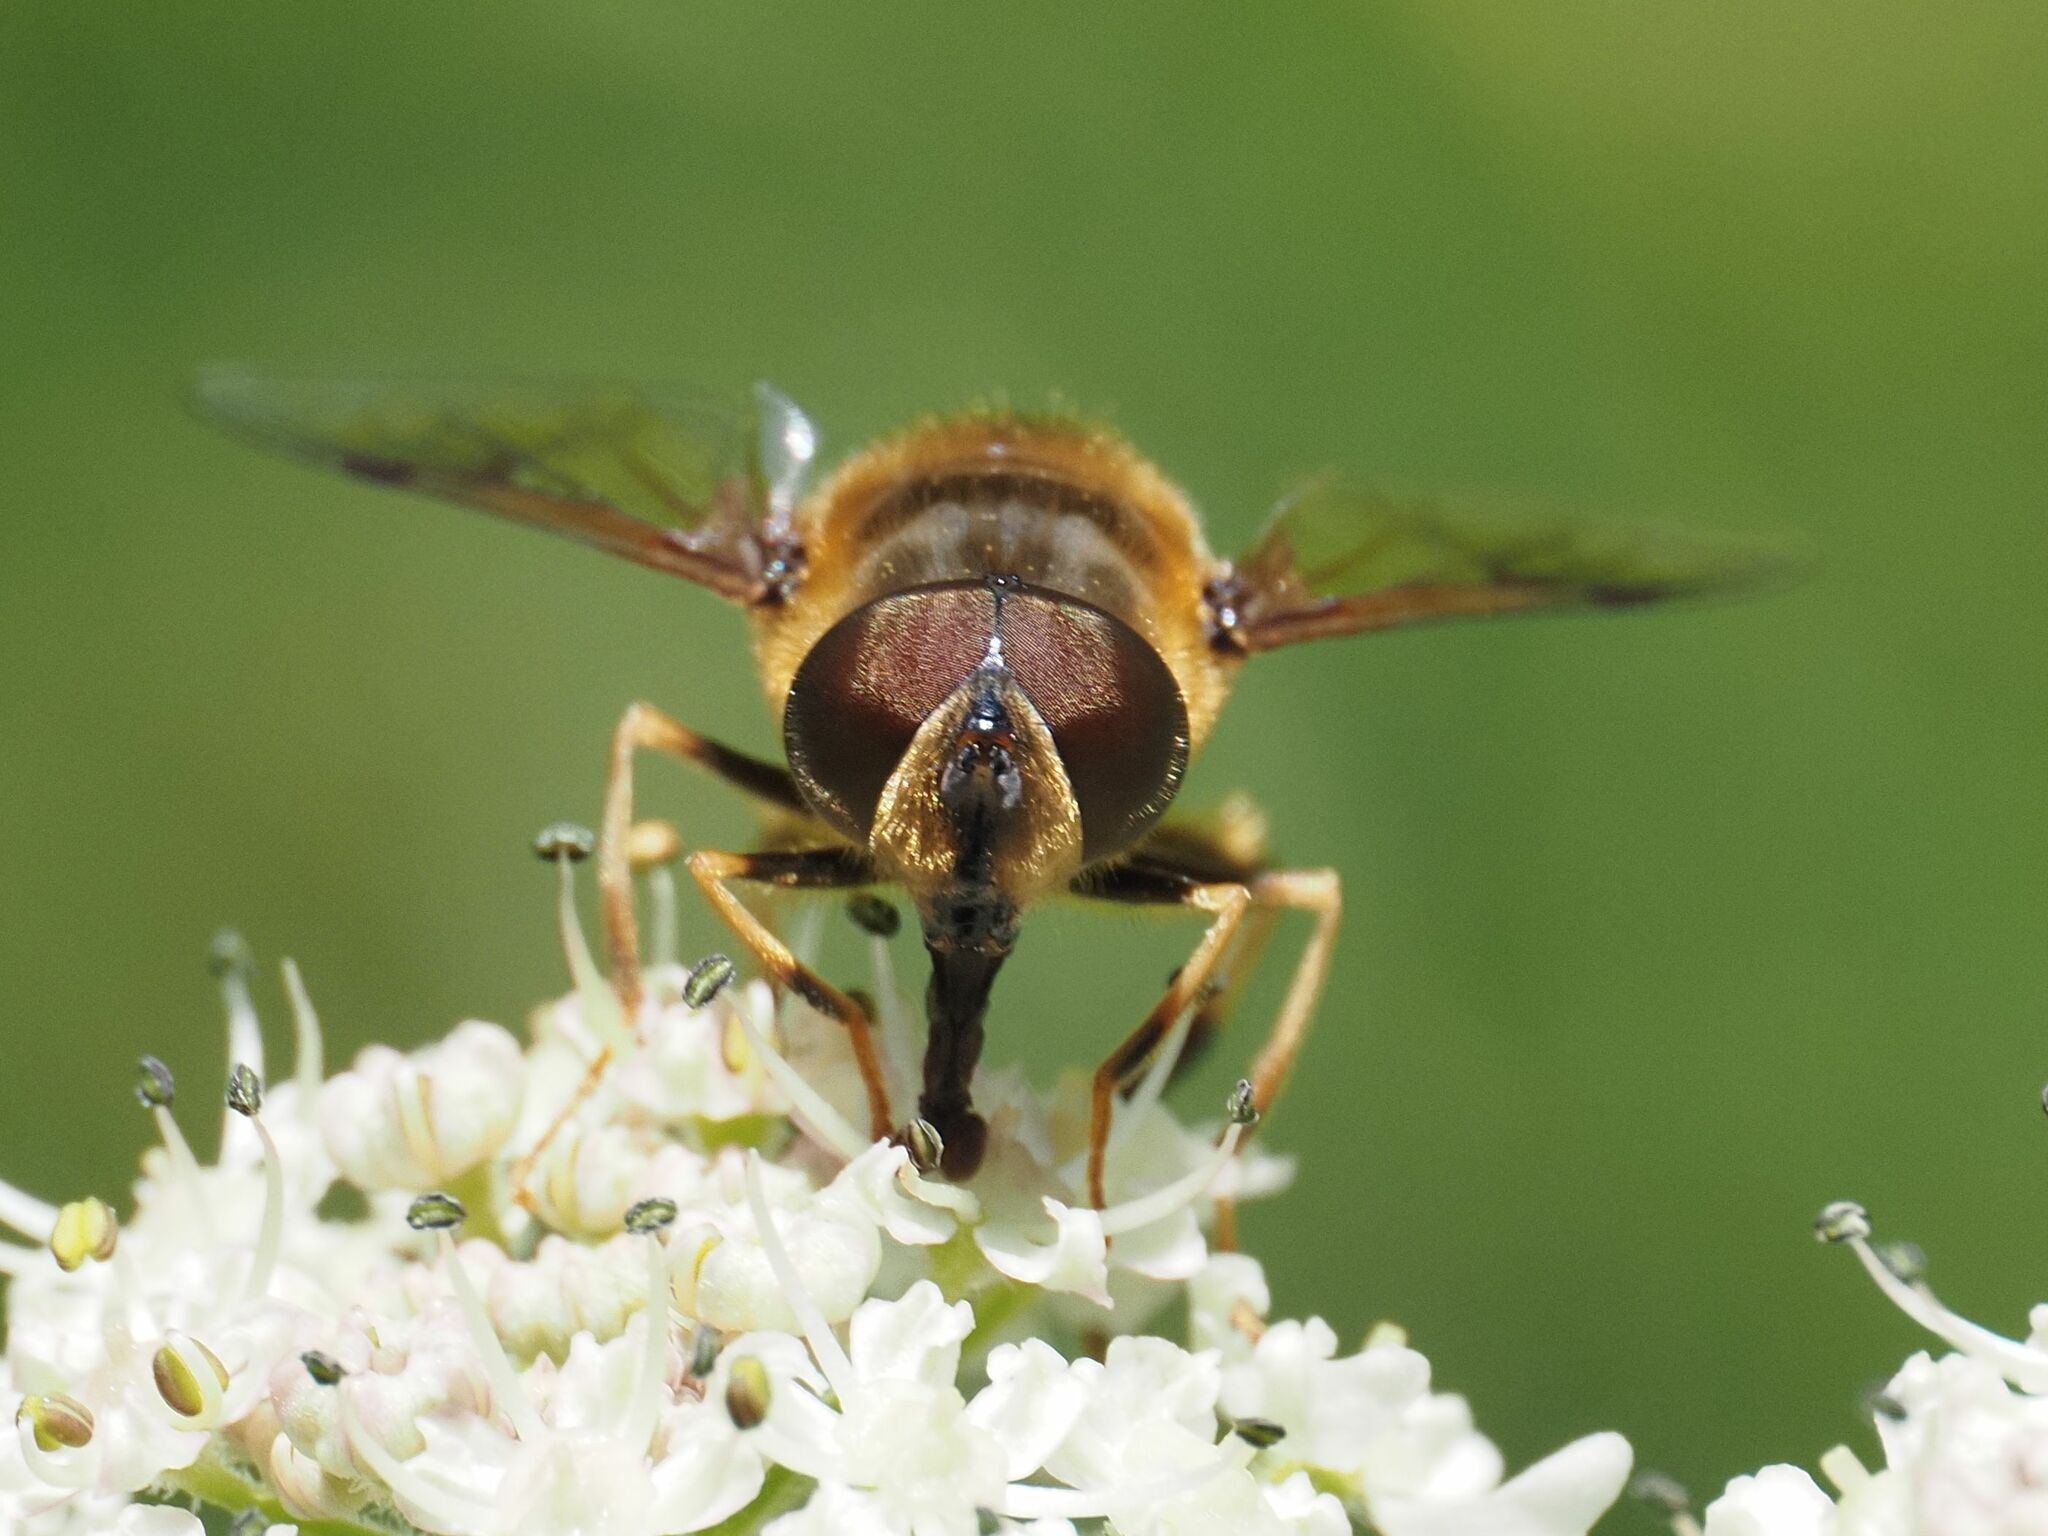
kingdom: Animalia
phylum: Arthropoda
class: Insecta
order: Diptera
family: Syrphidae
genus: Eristalis
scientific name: Eristalis pertinax
